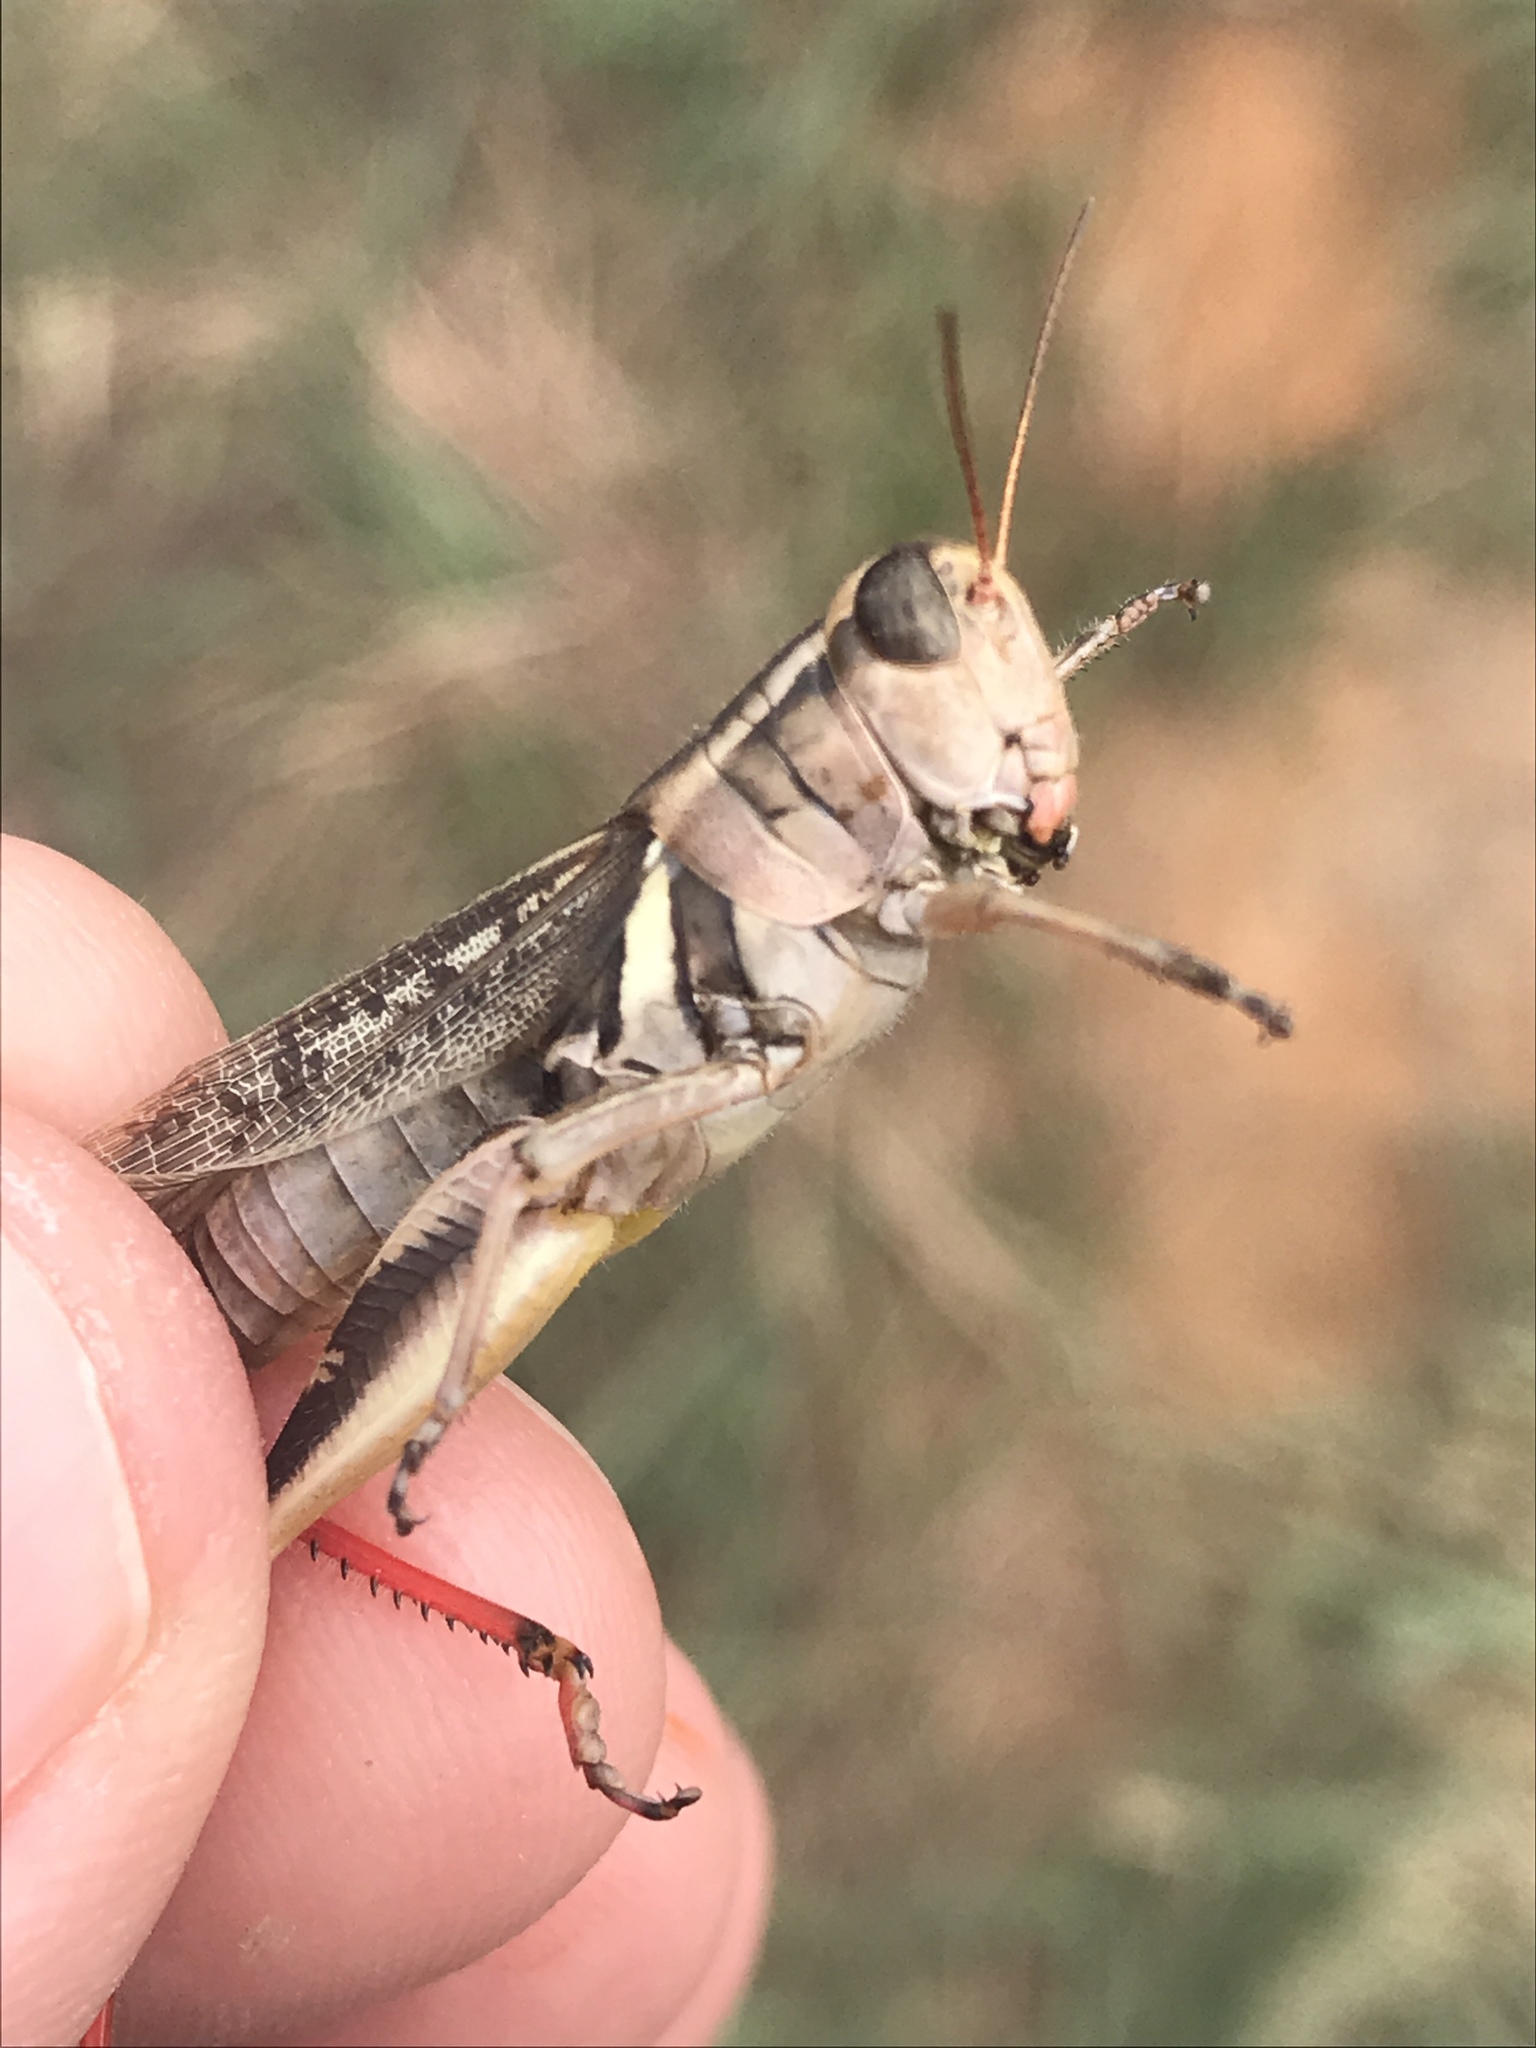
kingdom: Animalia
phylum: Arthropoda
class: Insecta
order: Orthoptera
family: Acrididae
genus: Melanoplus
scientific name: Melanoplus keeleri
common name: Keeler grasshopper
